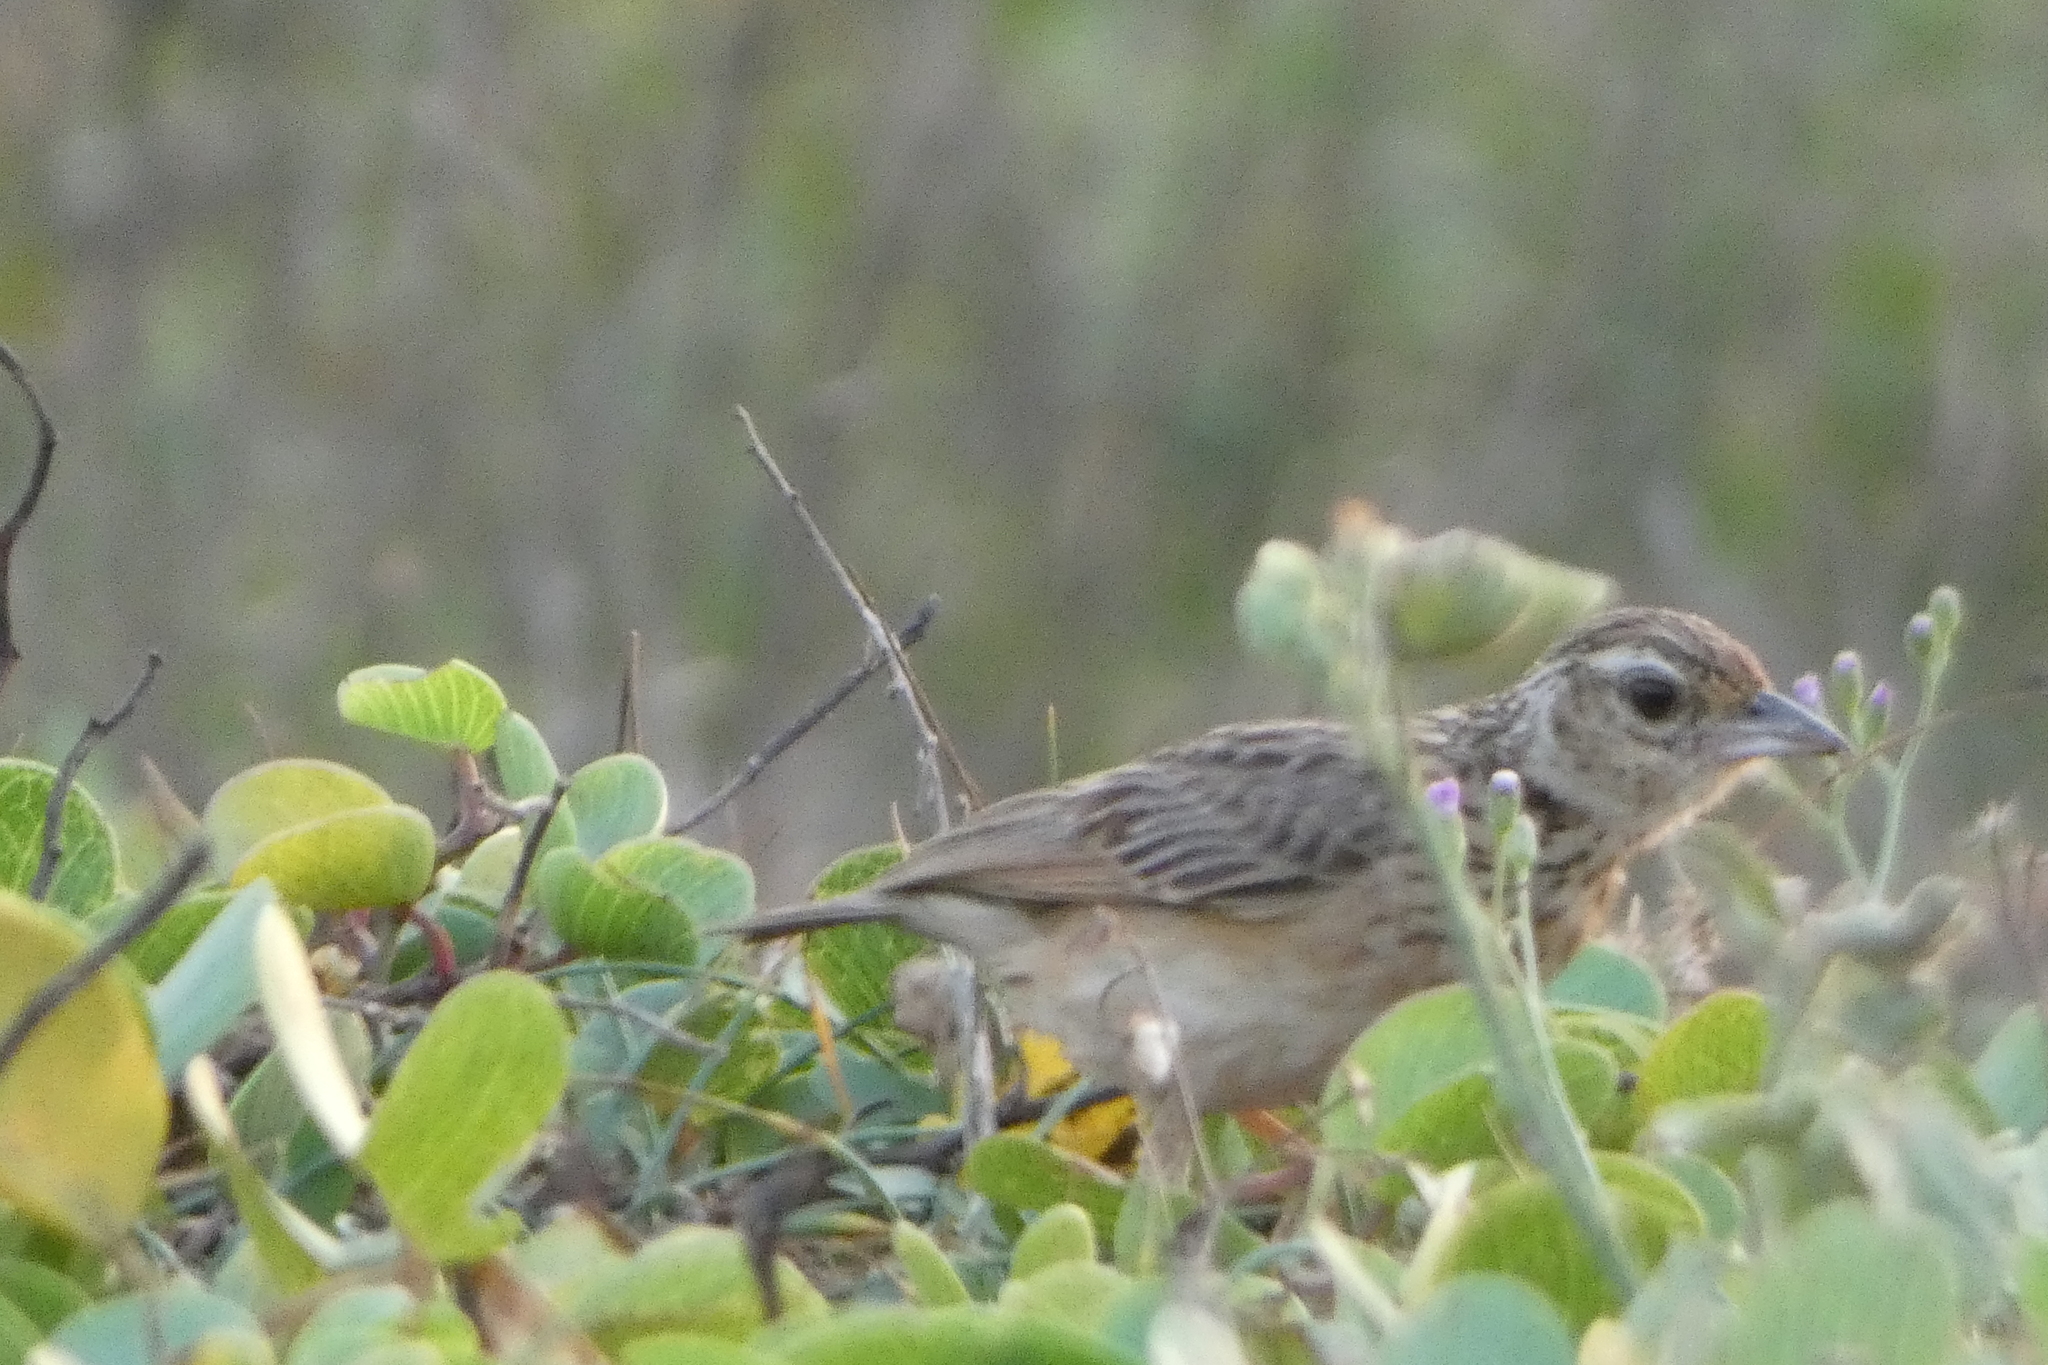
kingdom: Animalia
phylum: Chordata
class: Aves
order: Passeriformes
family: Alaudidae
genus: Mirafra
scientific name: Mirafra affinis
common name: Jerdon's bushlark
